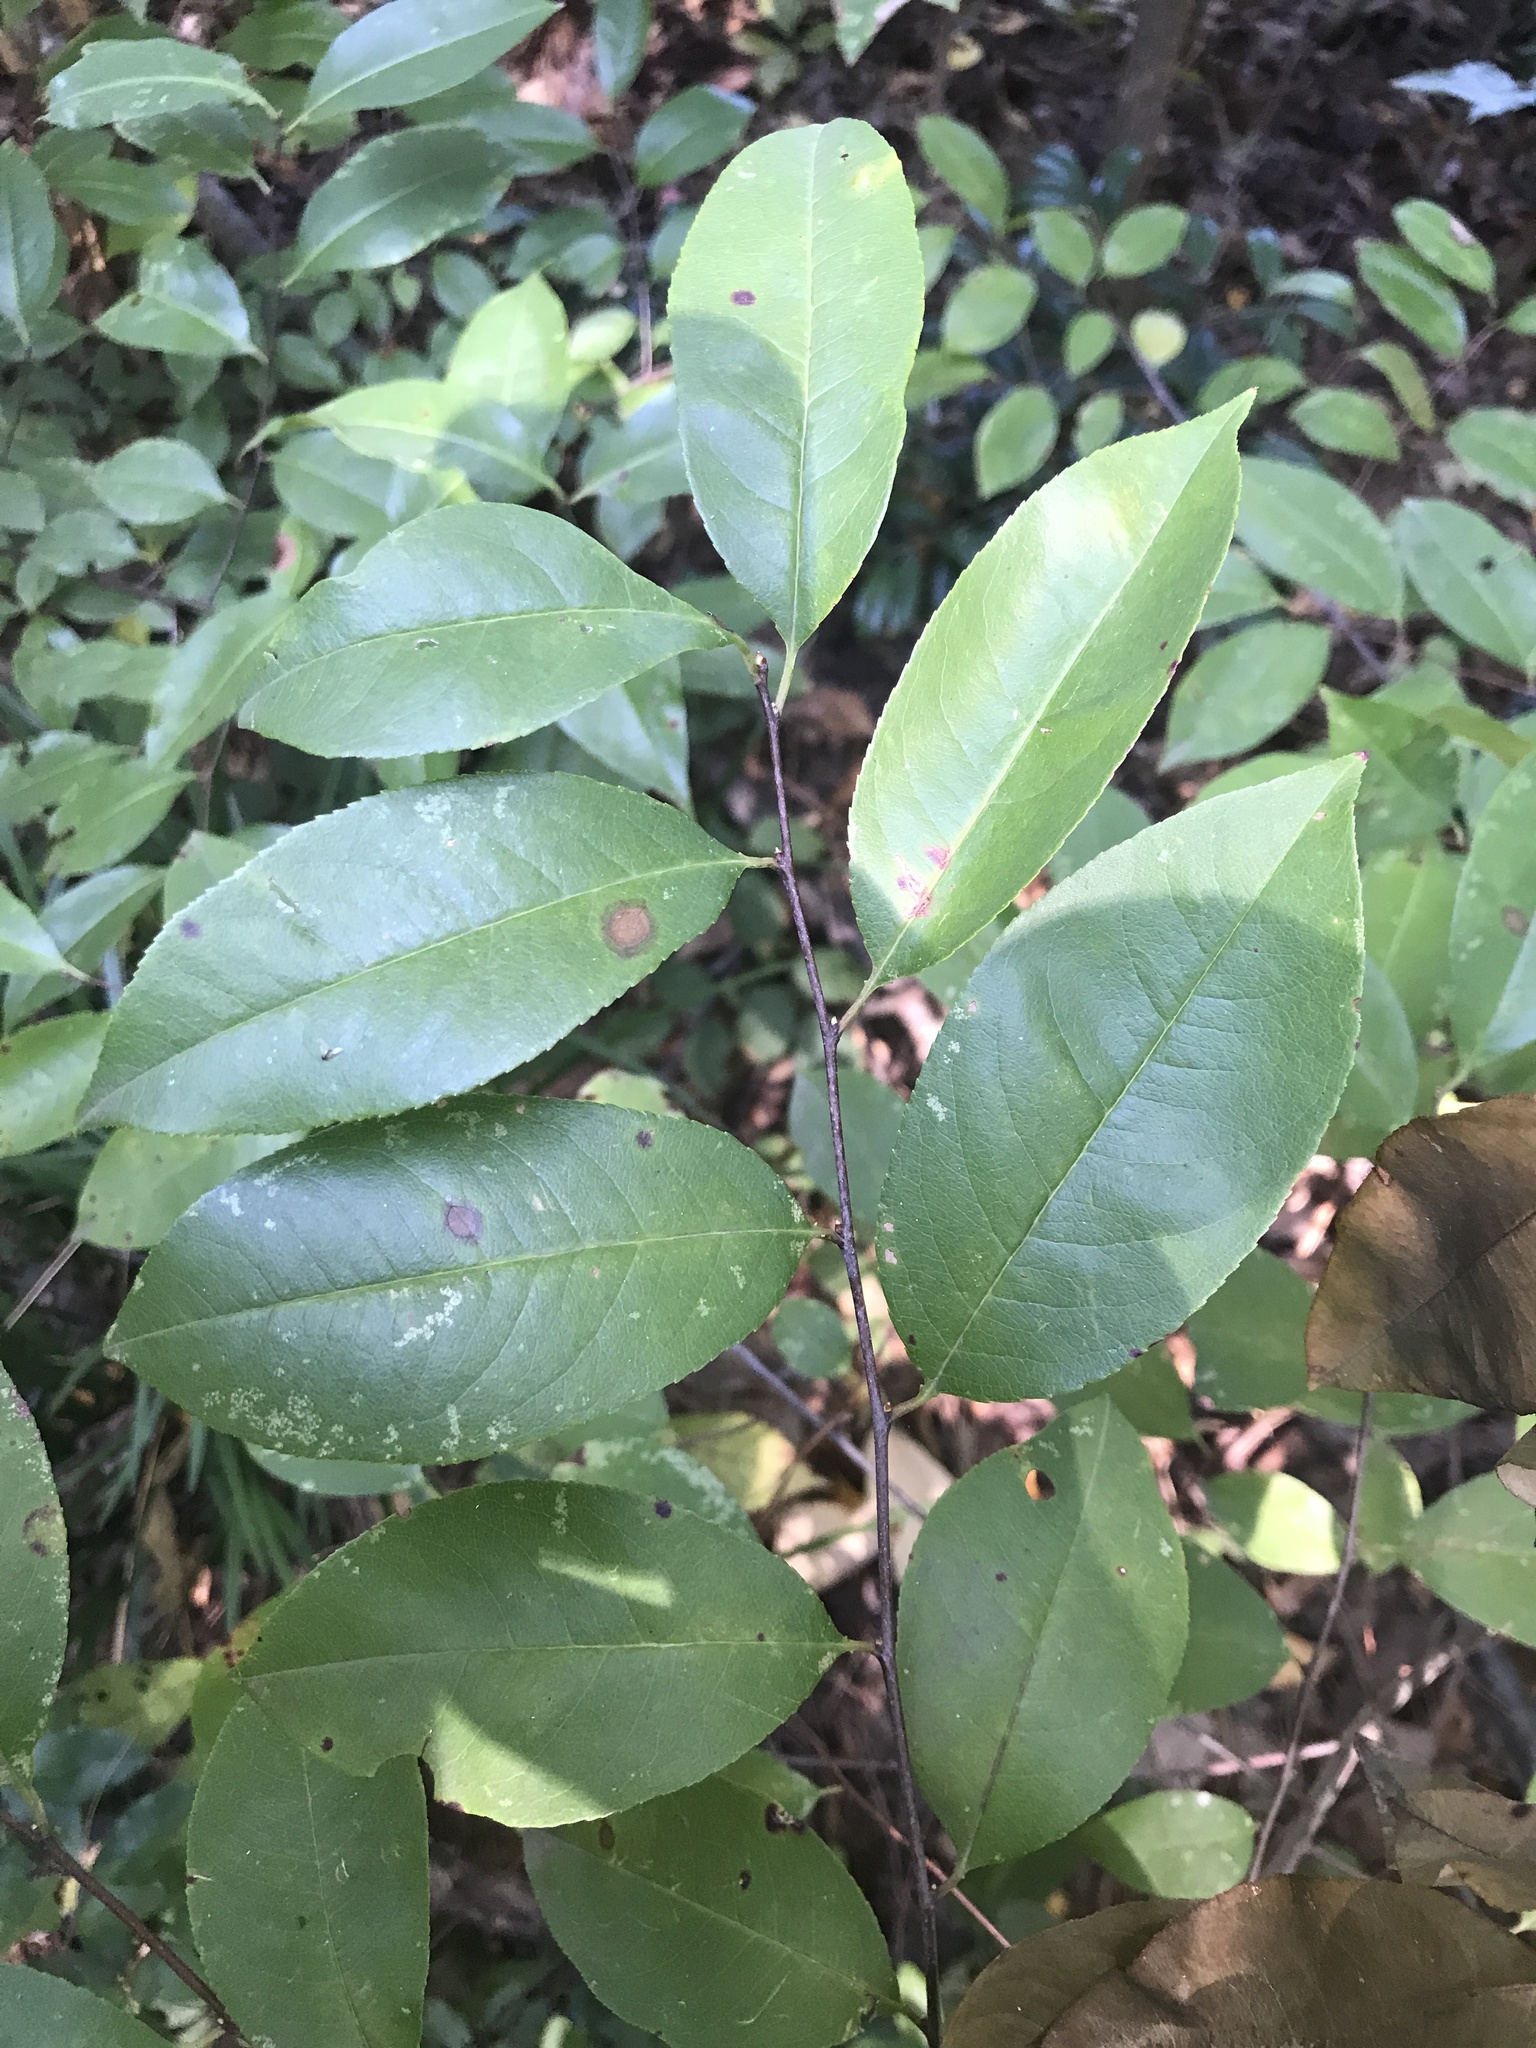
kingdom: Plantae
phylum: Tracheophyta
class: Magnoliopsida
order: Rosales
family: Rosaceae
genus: Prunus
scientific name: Prunus serotina
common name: Black cherry
